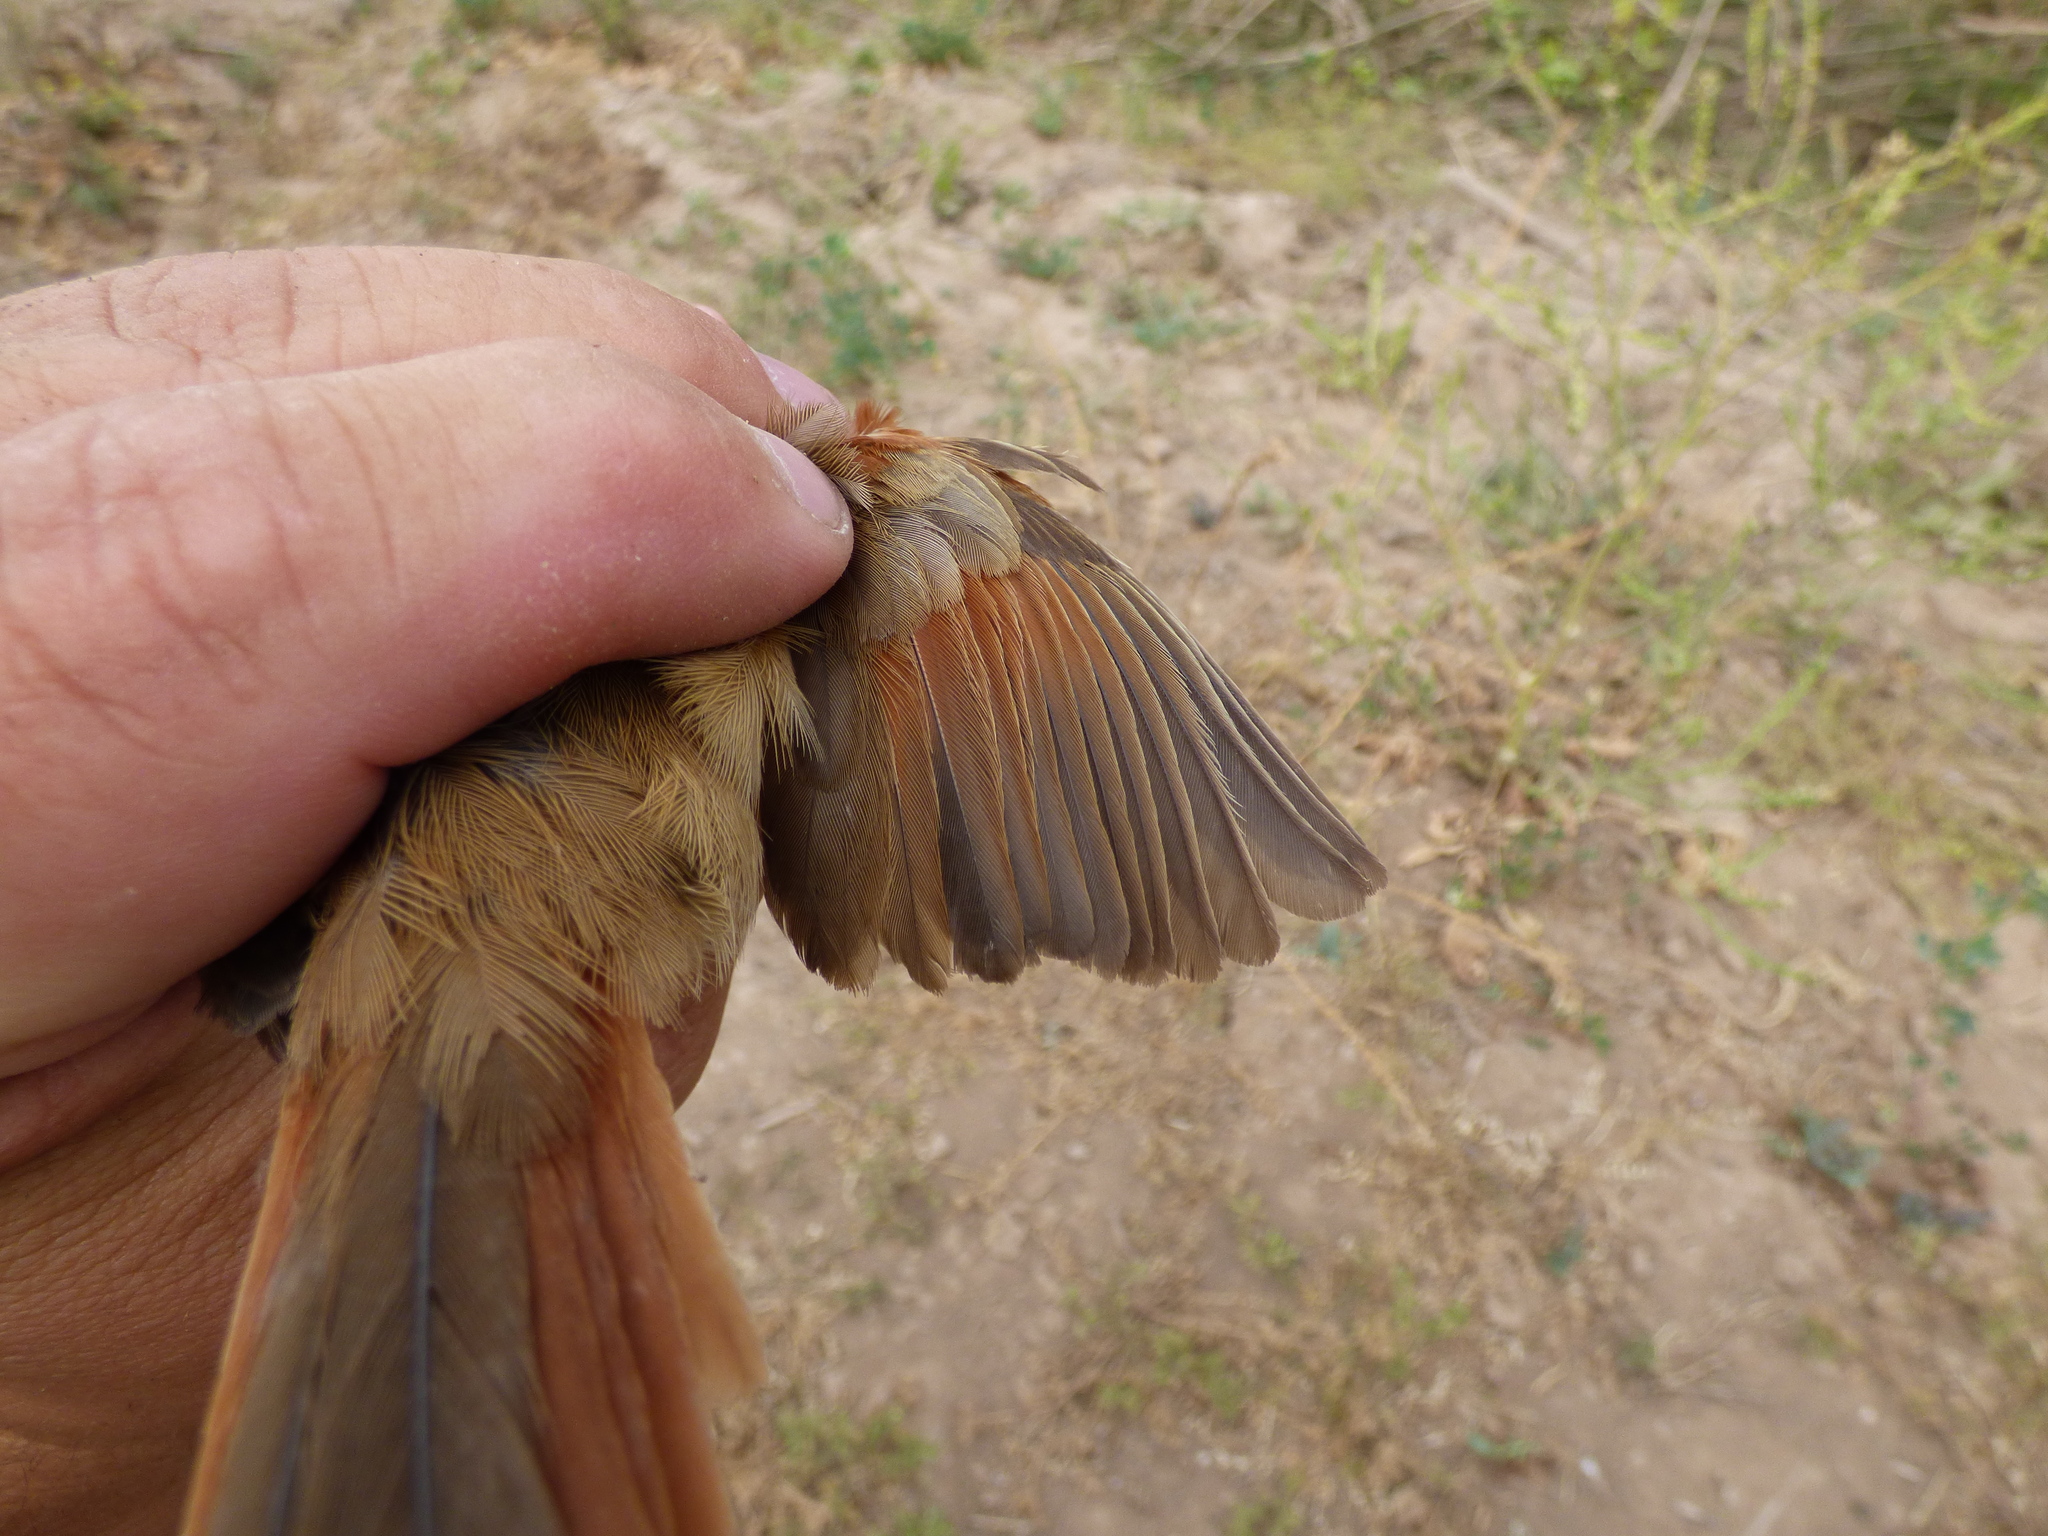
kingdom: Animalia
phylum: Chordata
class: Aves
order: Passeriformes
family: Furnariidae
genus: Phacellodomus
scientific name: Phacellodomus sibilatrix
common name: Little thornbird
